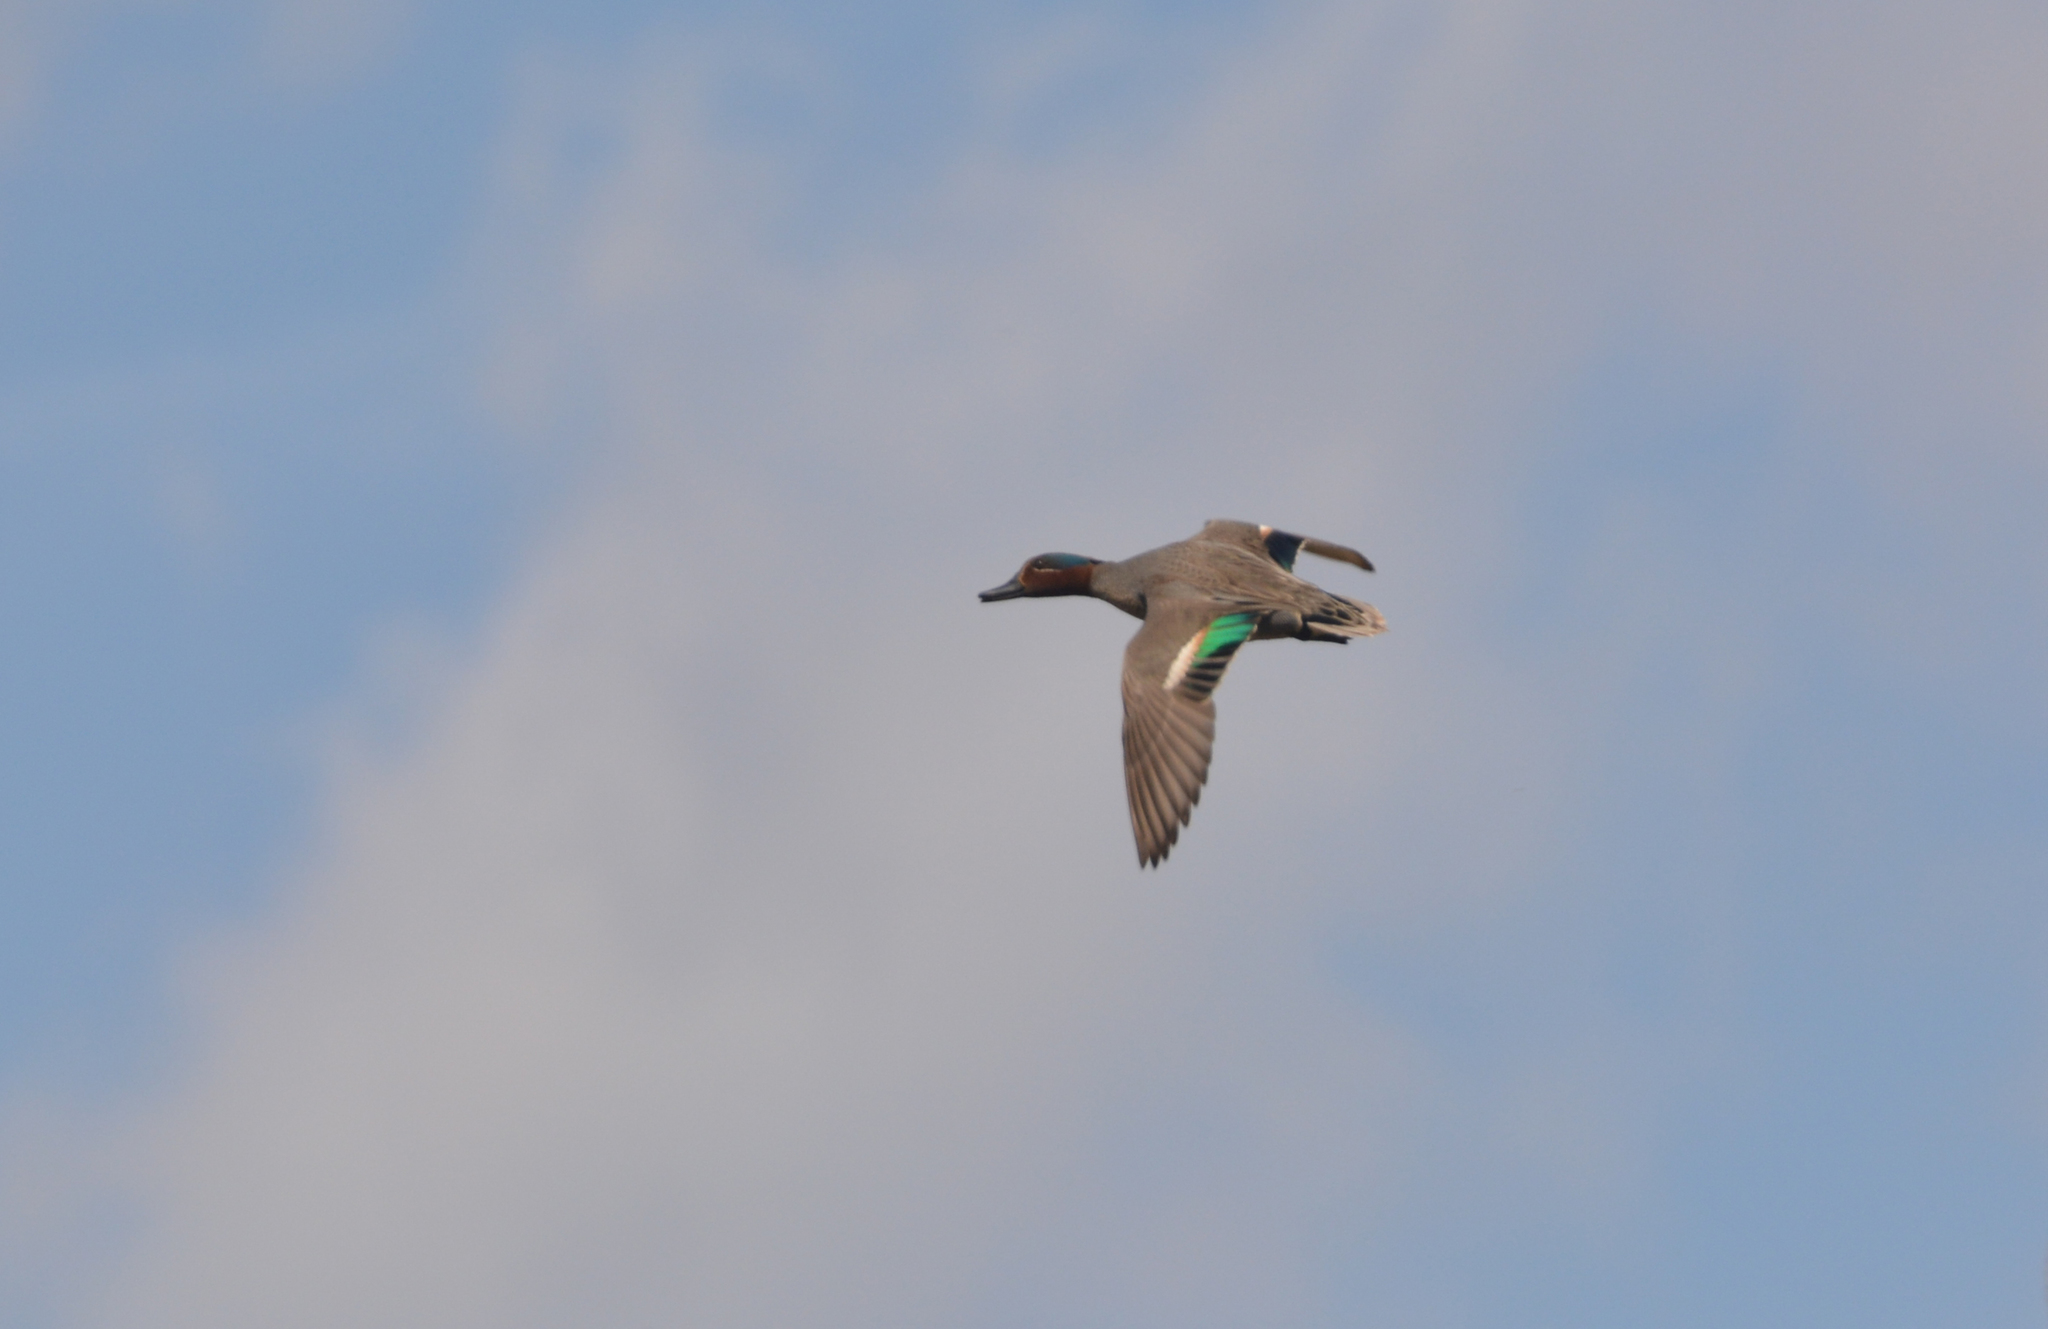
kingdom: Animalia
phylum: Chordata
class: Aves
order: Anseriformes
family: Anatidae
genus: Anas
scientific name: Anas crecca
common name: Eurasian teal
